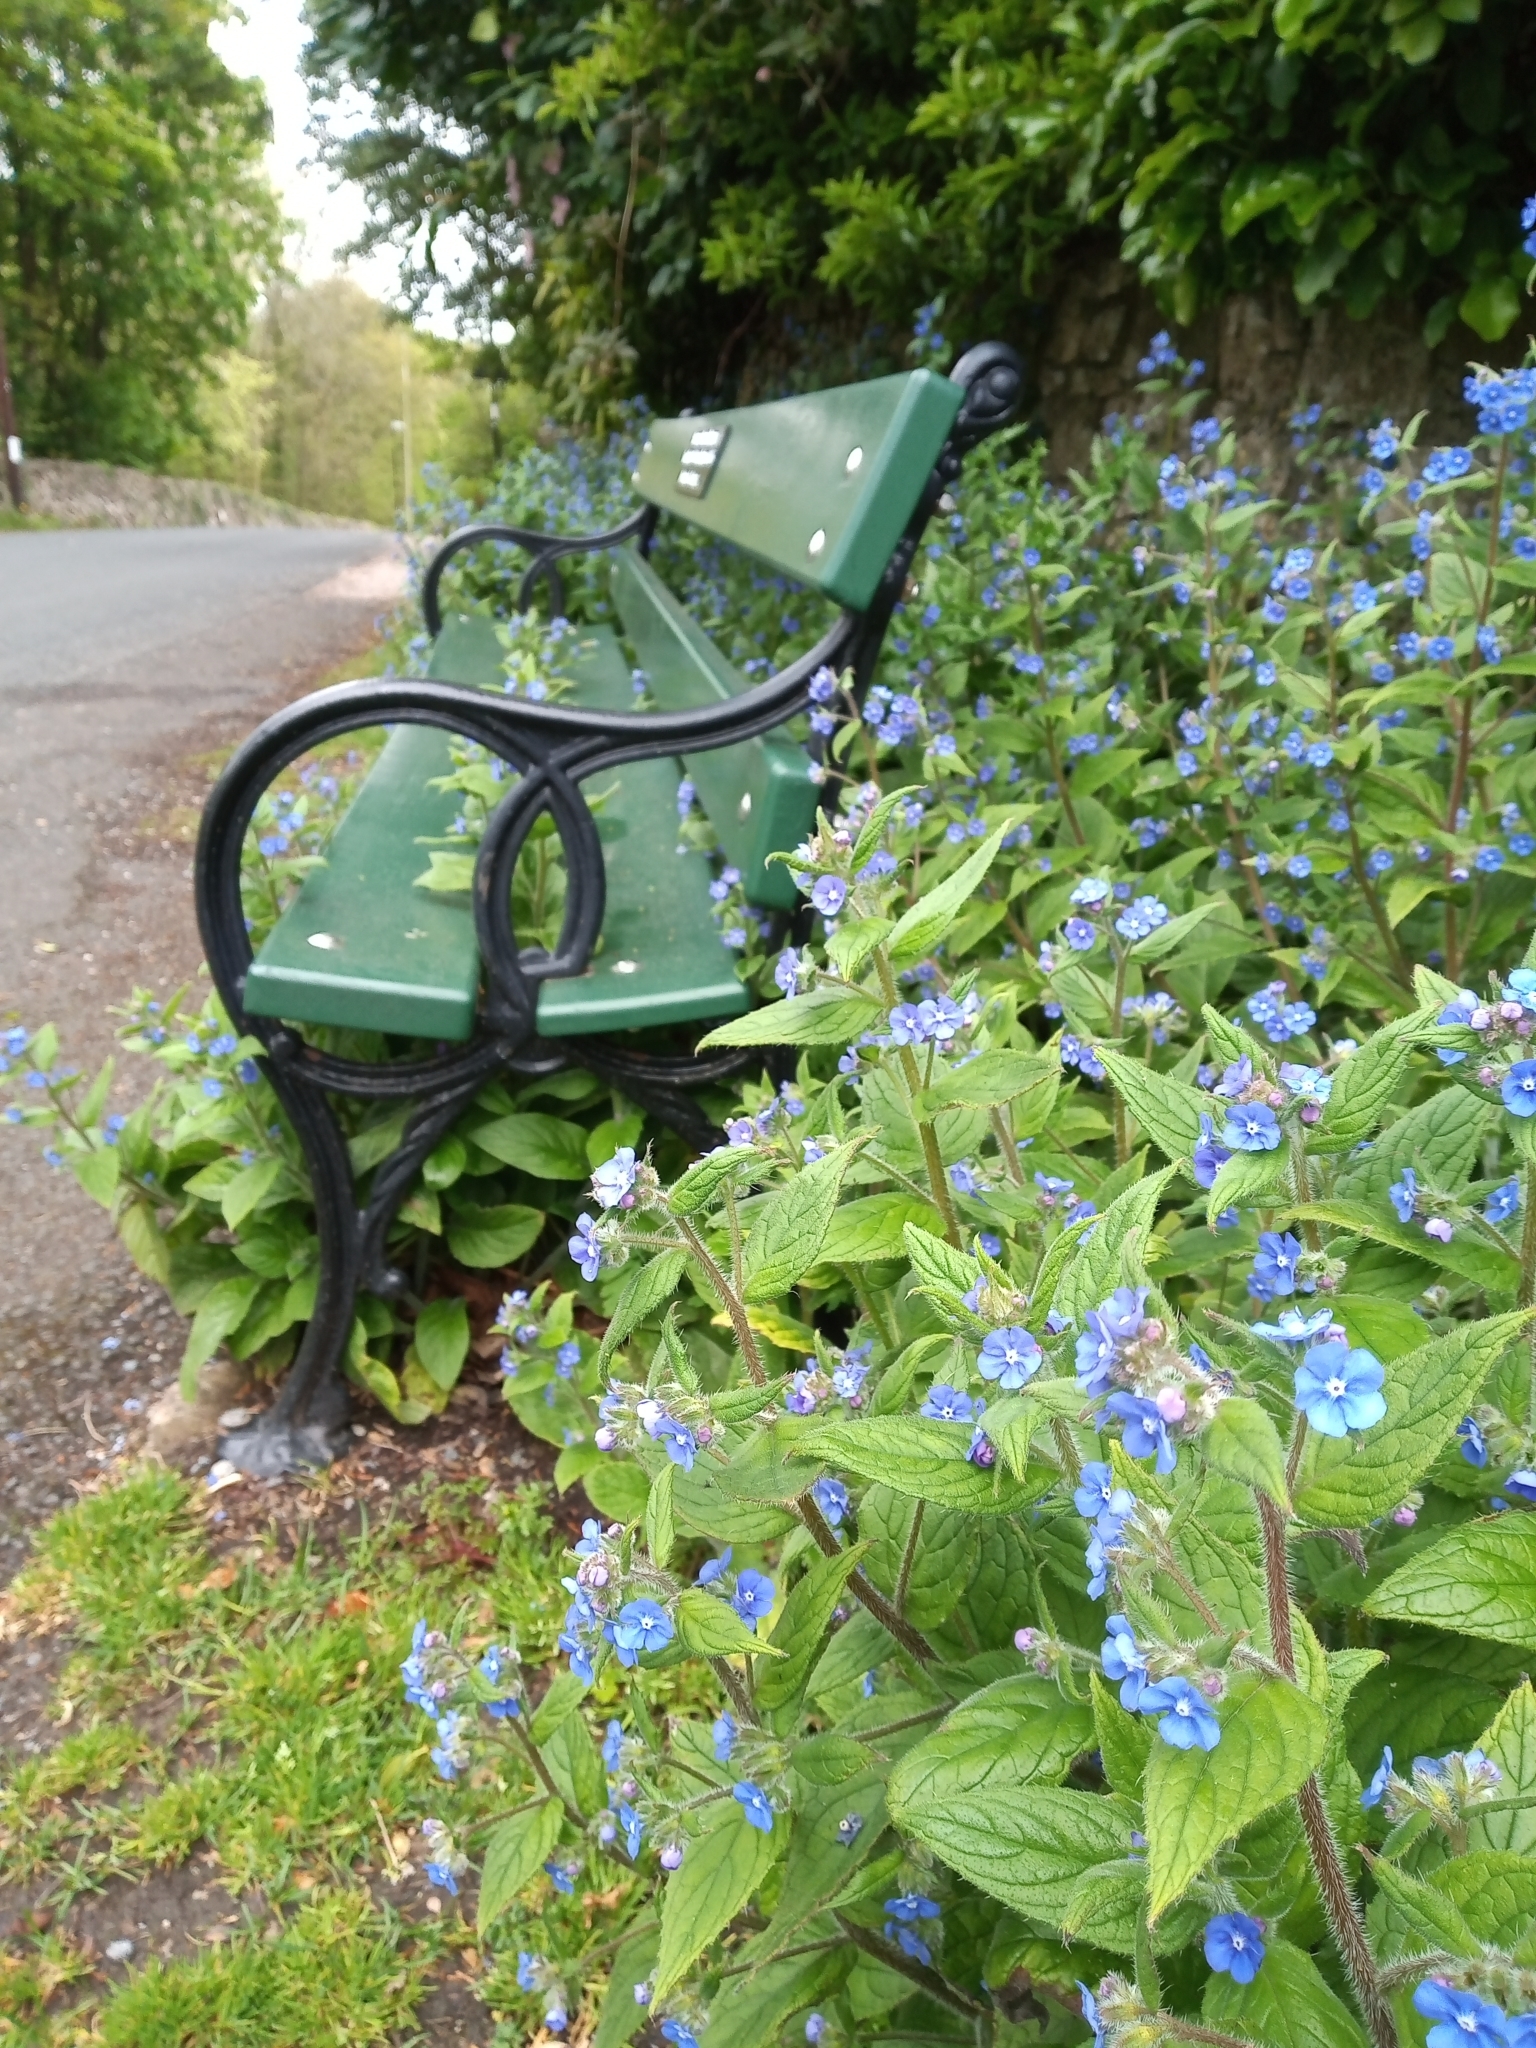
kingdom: Plantae
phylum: Tracheophyta
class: Magnoliopsida
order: Boraginales
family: Boraginaceae
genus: Pentaglottis
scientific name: Pentaglottis sempervirens
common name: Green alkanet
